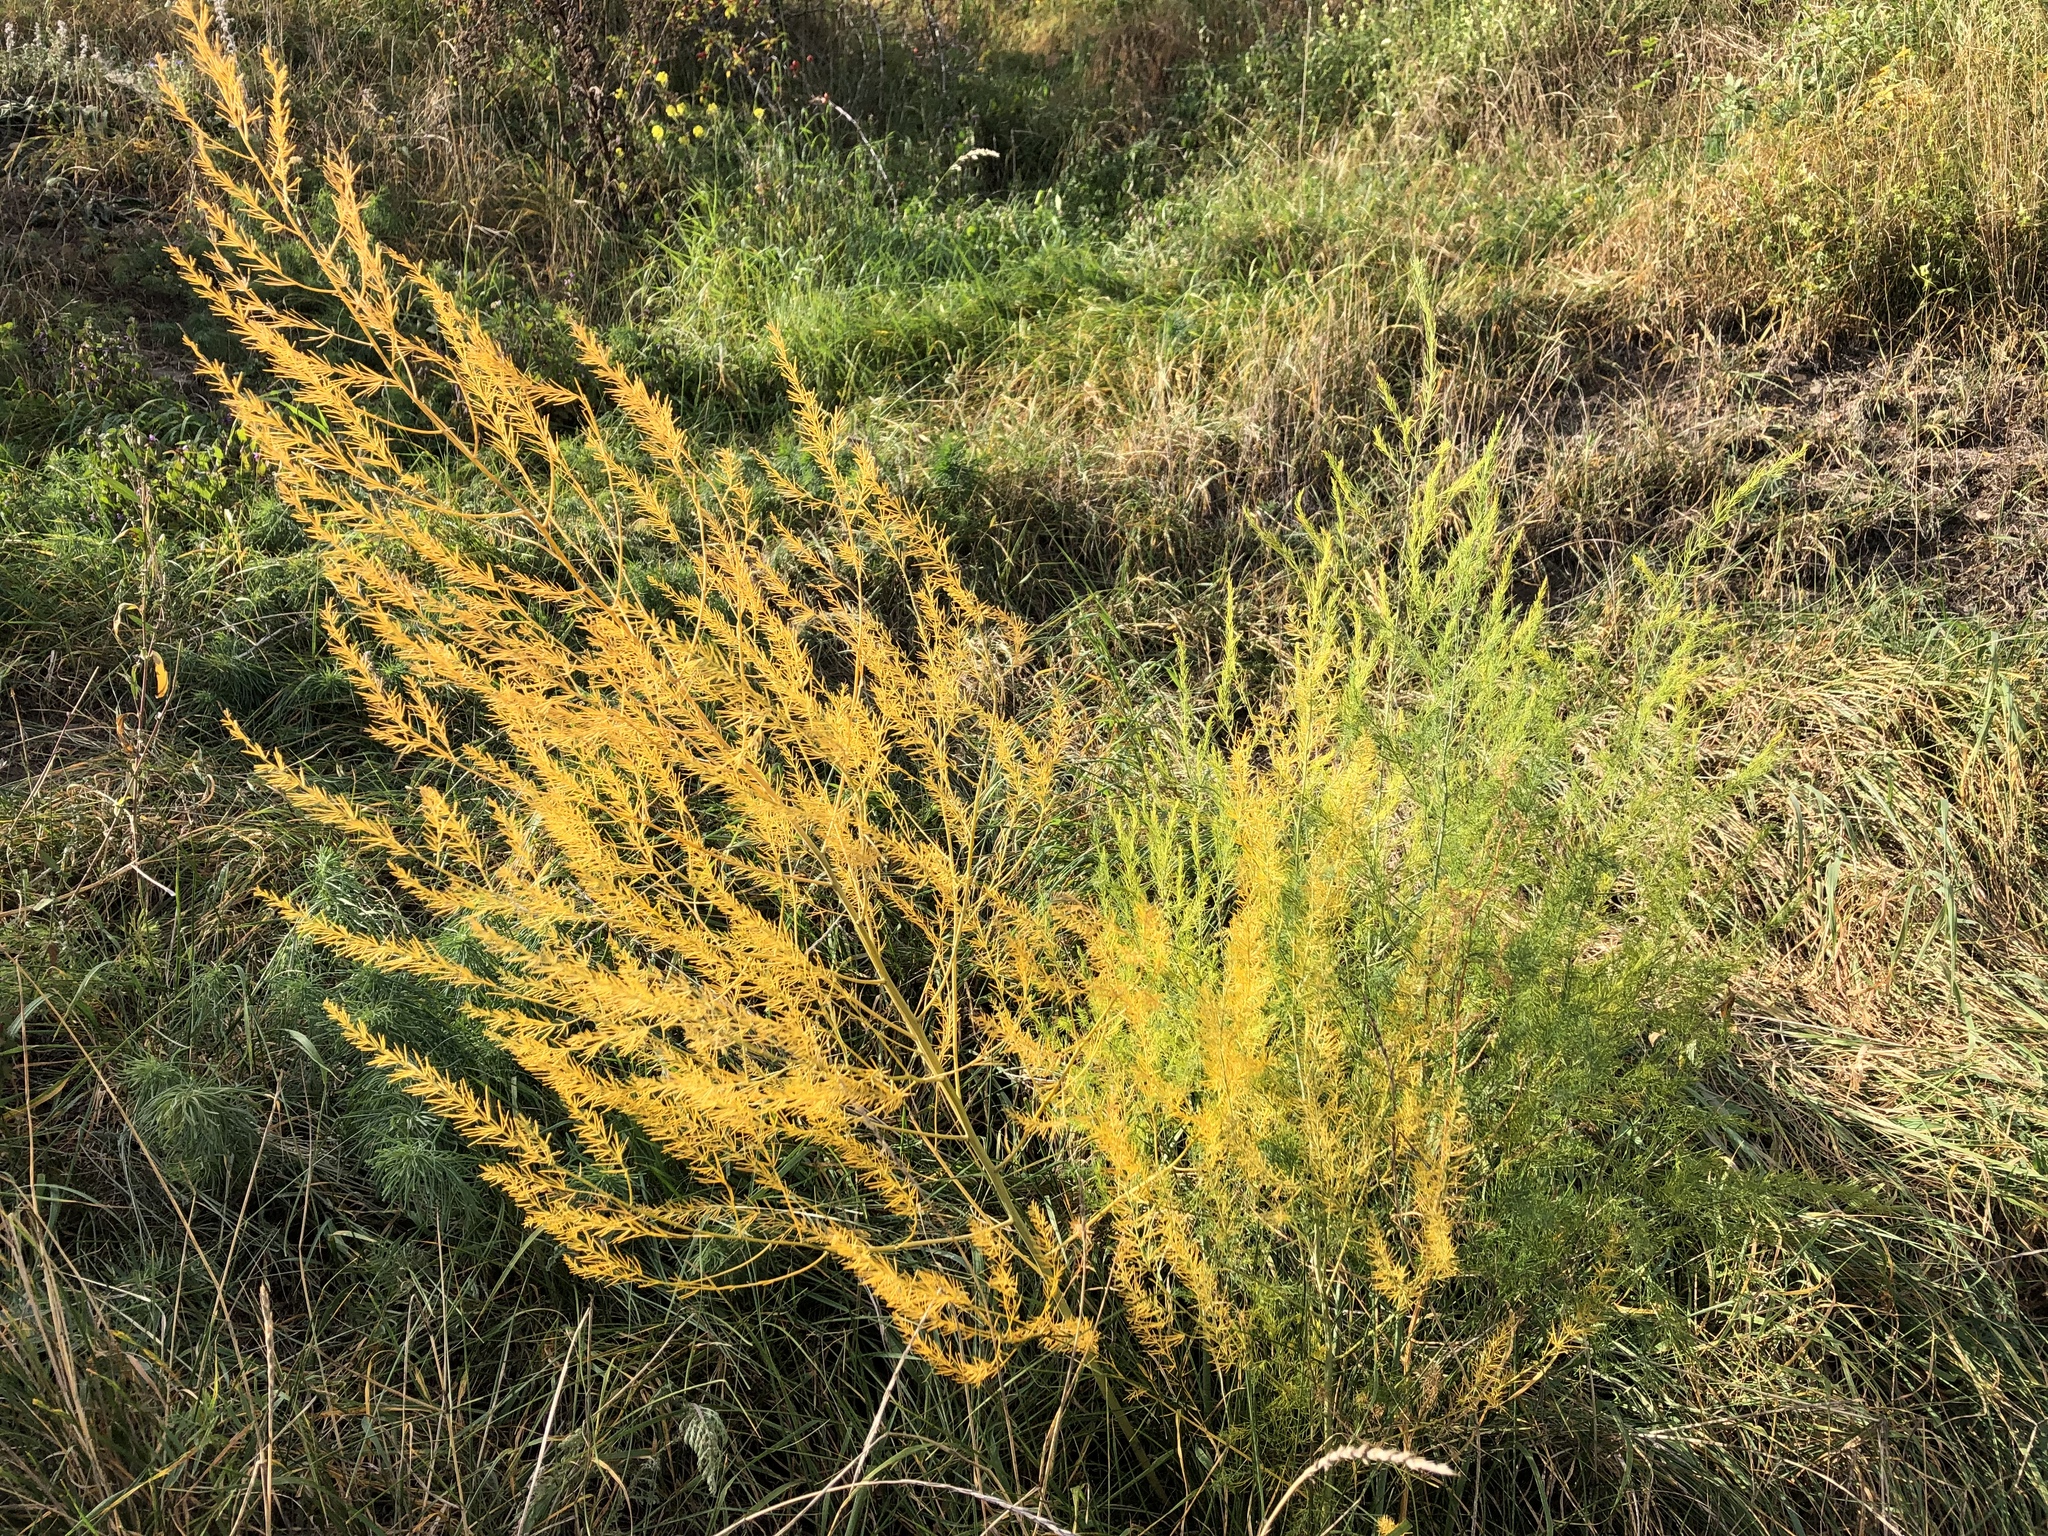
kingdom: Plantae
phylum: Tracheophyta
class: Liliopsida
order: Asparagales
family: Asparagaceae
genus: Asparagus
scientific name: Asparagus officinalis
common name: Garden asparagus
